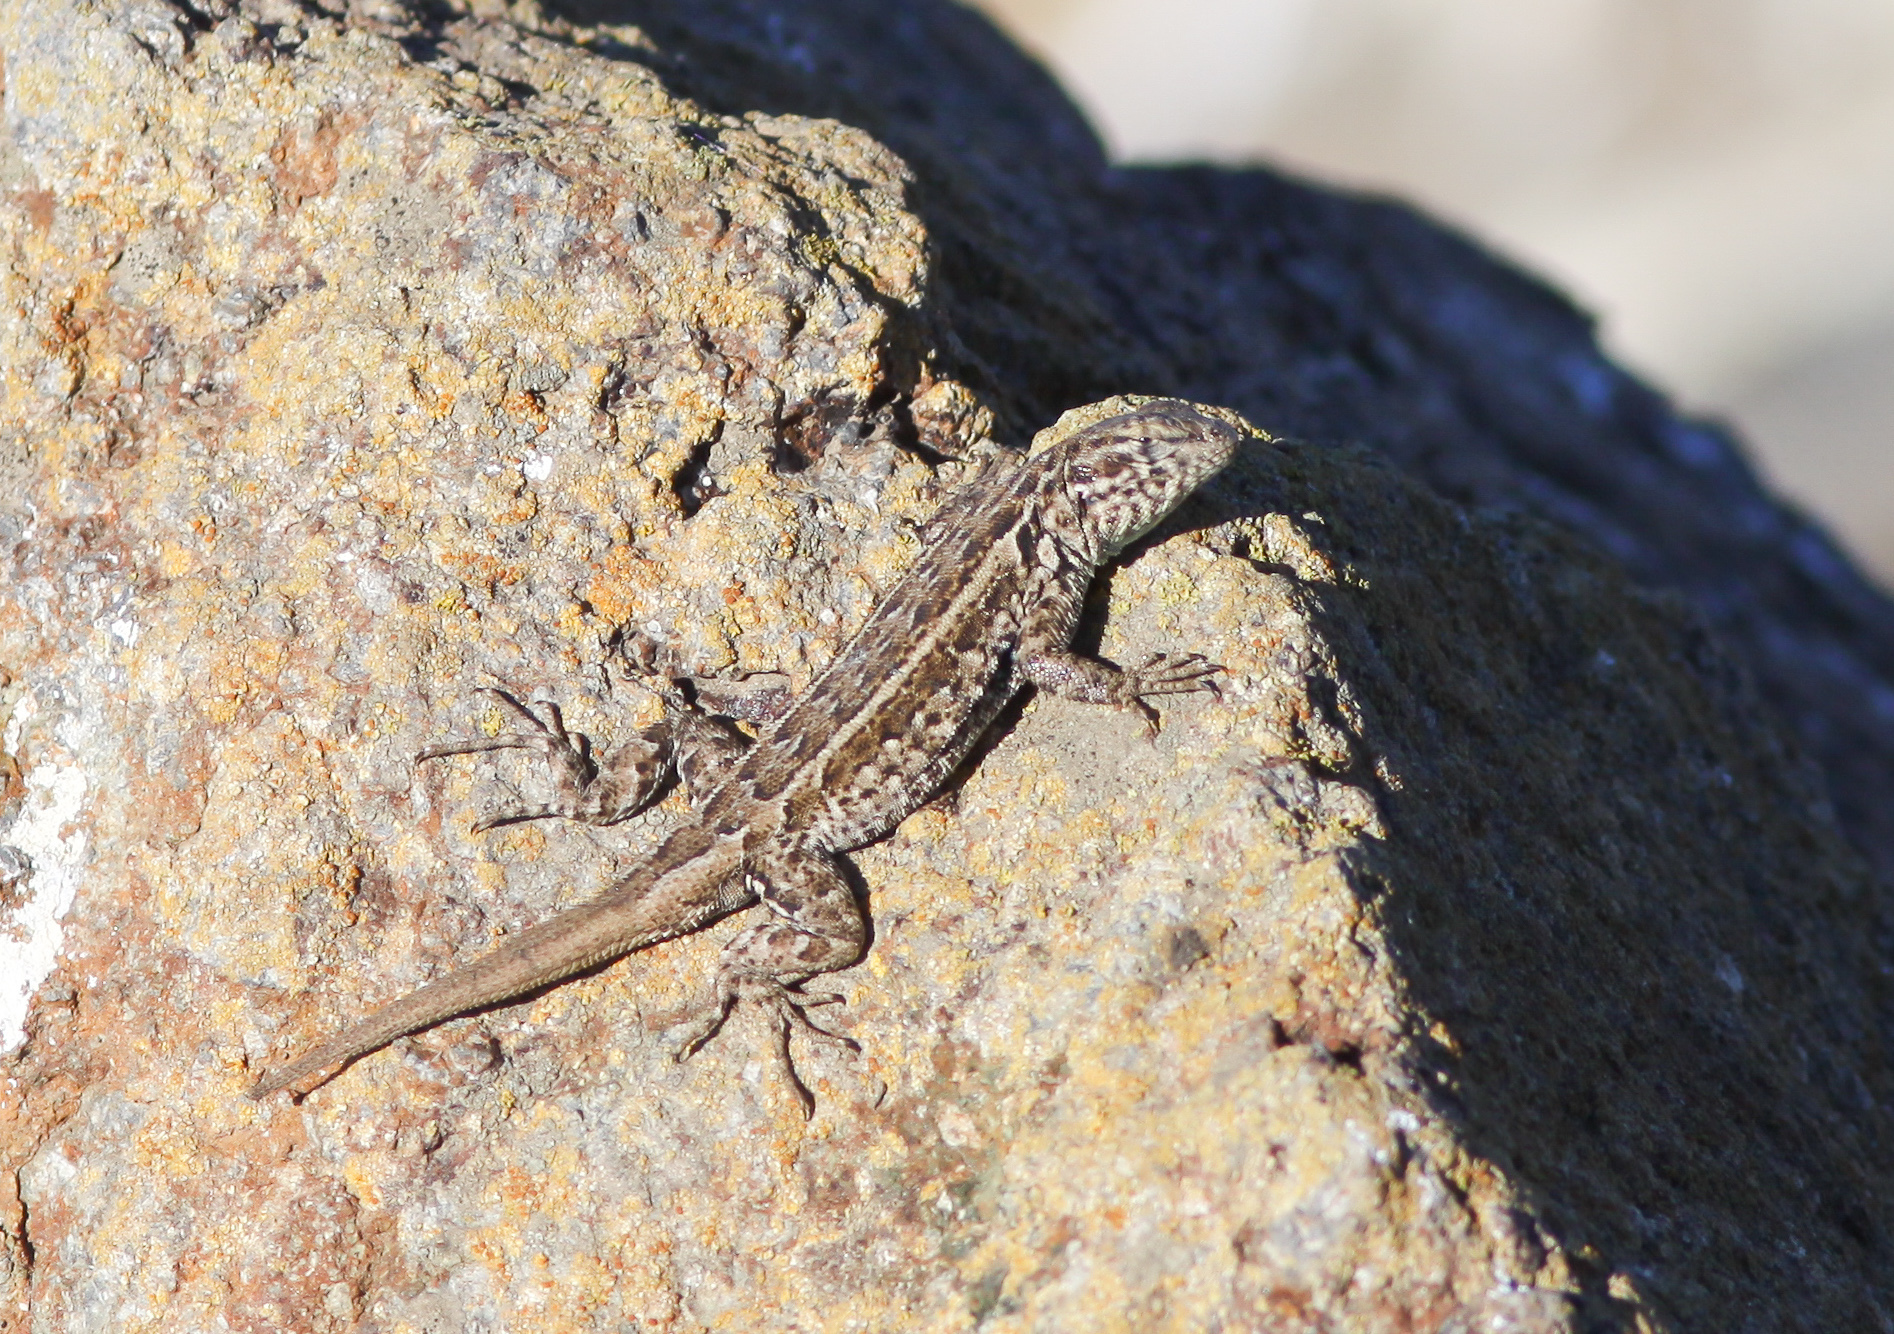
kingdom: Animalia
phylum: Chordata
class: Squamata
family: Phrynosomatidae
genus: Uta
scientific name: Uta stansburiana
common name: Side-blotched lizard
